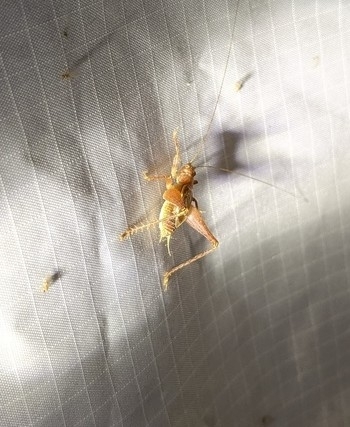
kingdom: Animalia
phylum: Arthropoda
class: Insecta
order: Orthoptera
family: Gryllidae
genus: Hapithus
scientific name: Hapithus agitator
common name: Restless bush cricket
